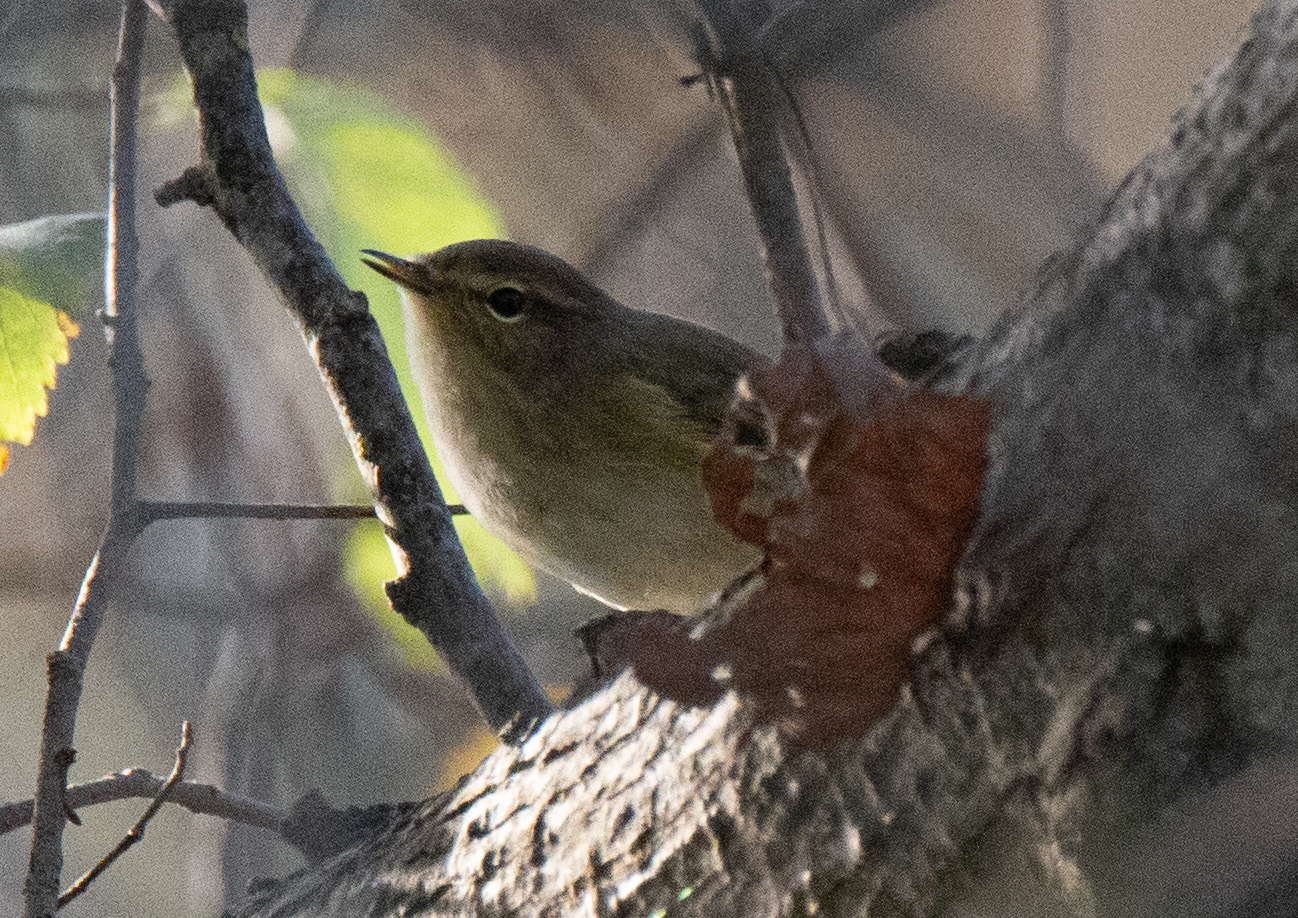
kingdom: Animalia
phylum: Chordata
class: Aves
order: Passeriformes
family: Phylloscopidae
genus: Phylloscopus
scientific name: Phylloscopus collybita
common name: Common chiffchaff
